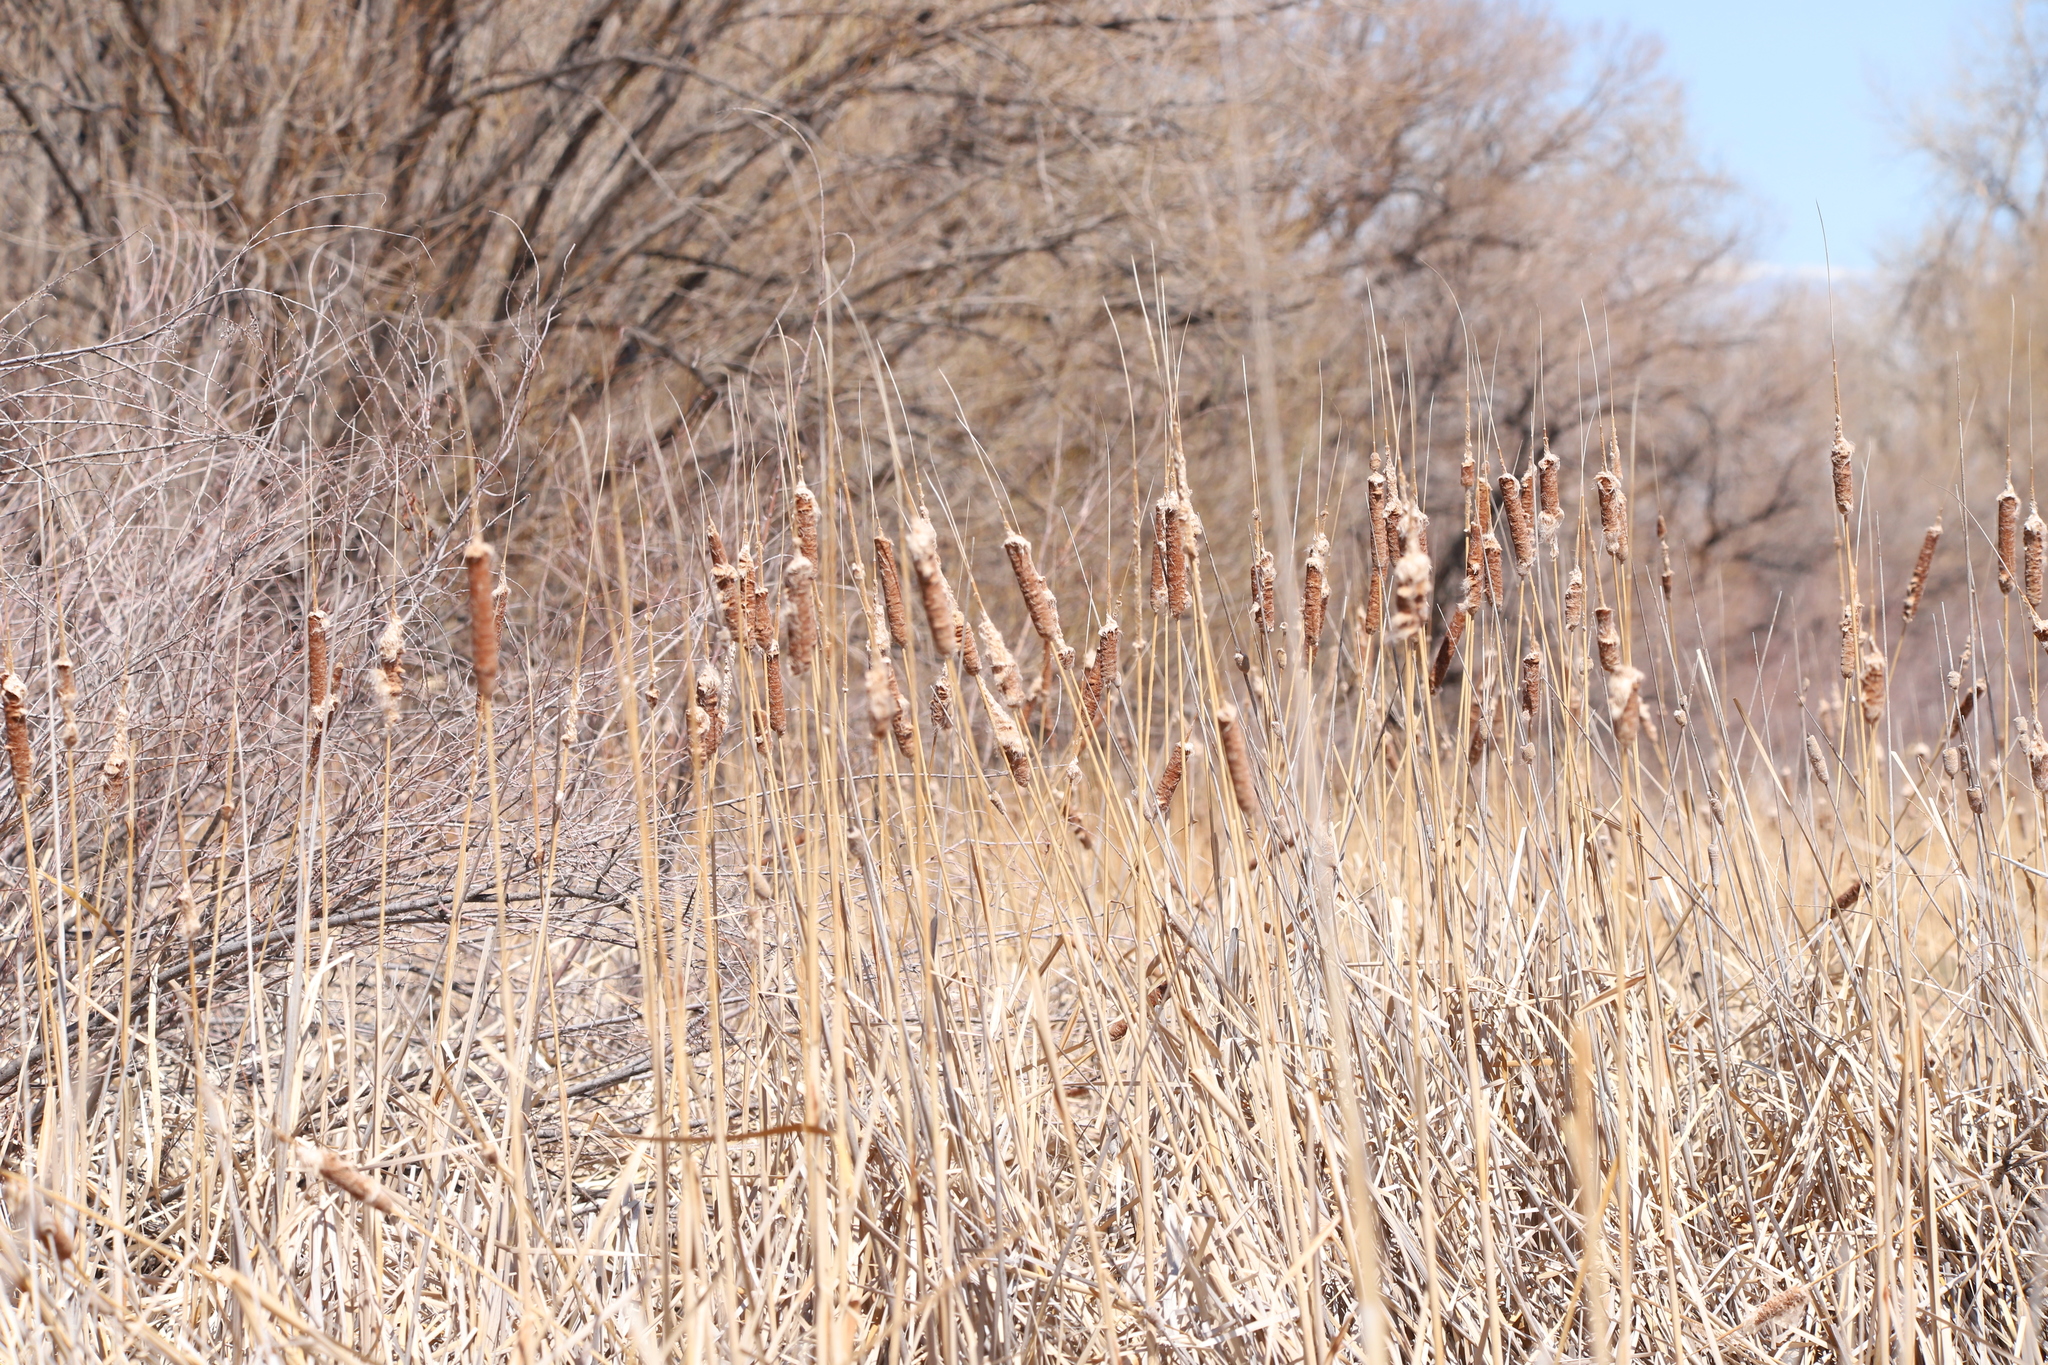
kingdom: Plantae
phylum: Tracheophyta
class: Liliopsida
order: Poales
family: Typhaceae
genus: Typha
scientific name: Typha
